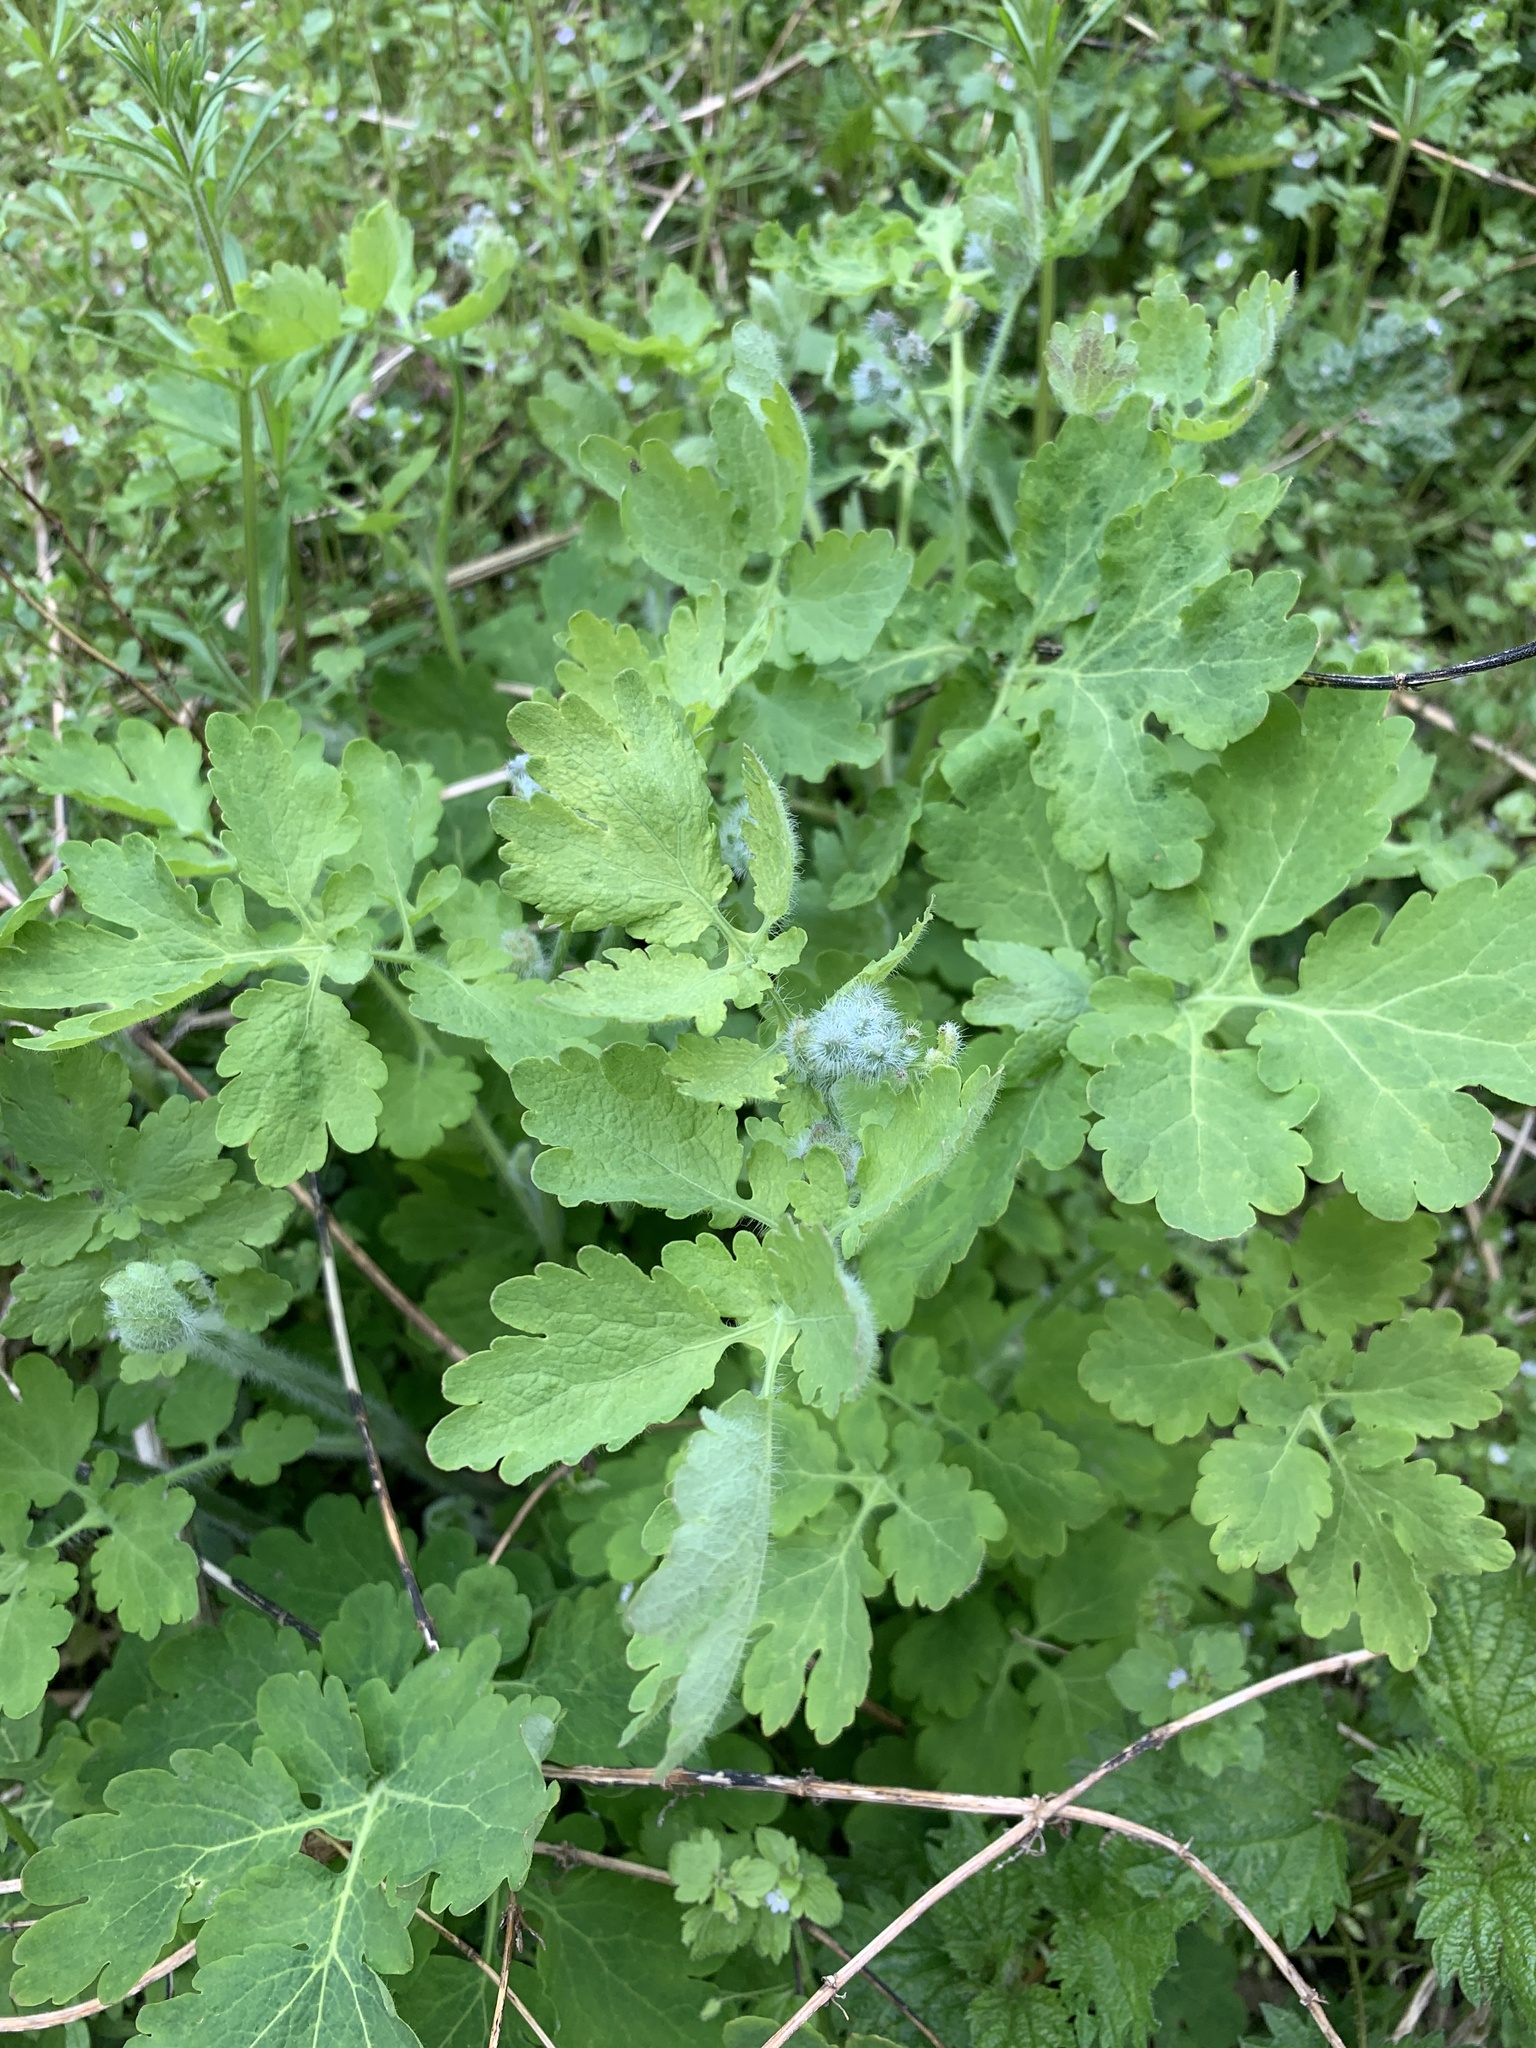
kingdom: Plantae
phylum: Tracheophyta
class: Magnoliopsida
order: Ranunculales
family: Papaveraceae
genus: Chelidonium
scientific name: Chelidonium majus
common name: Greater celandine
